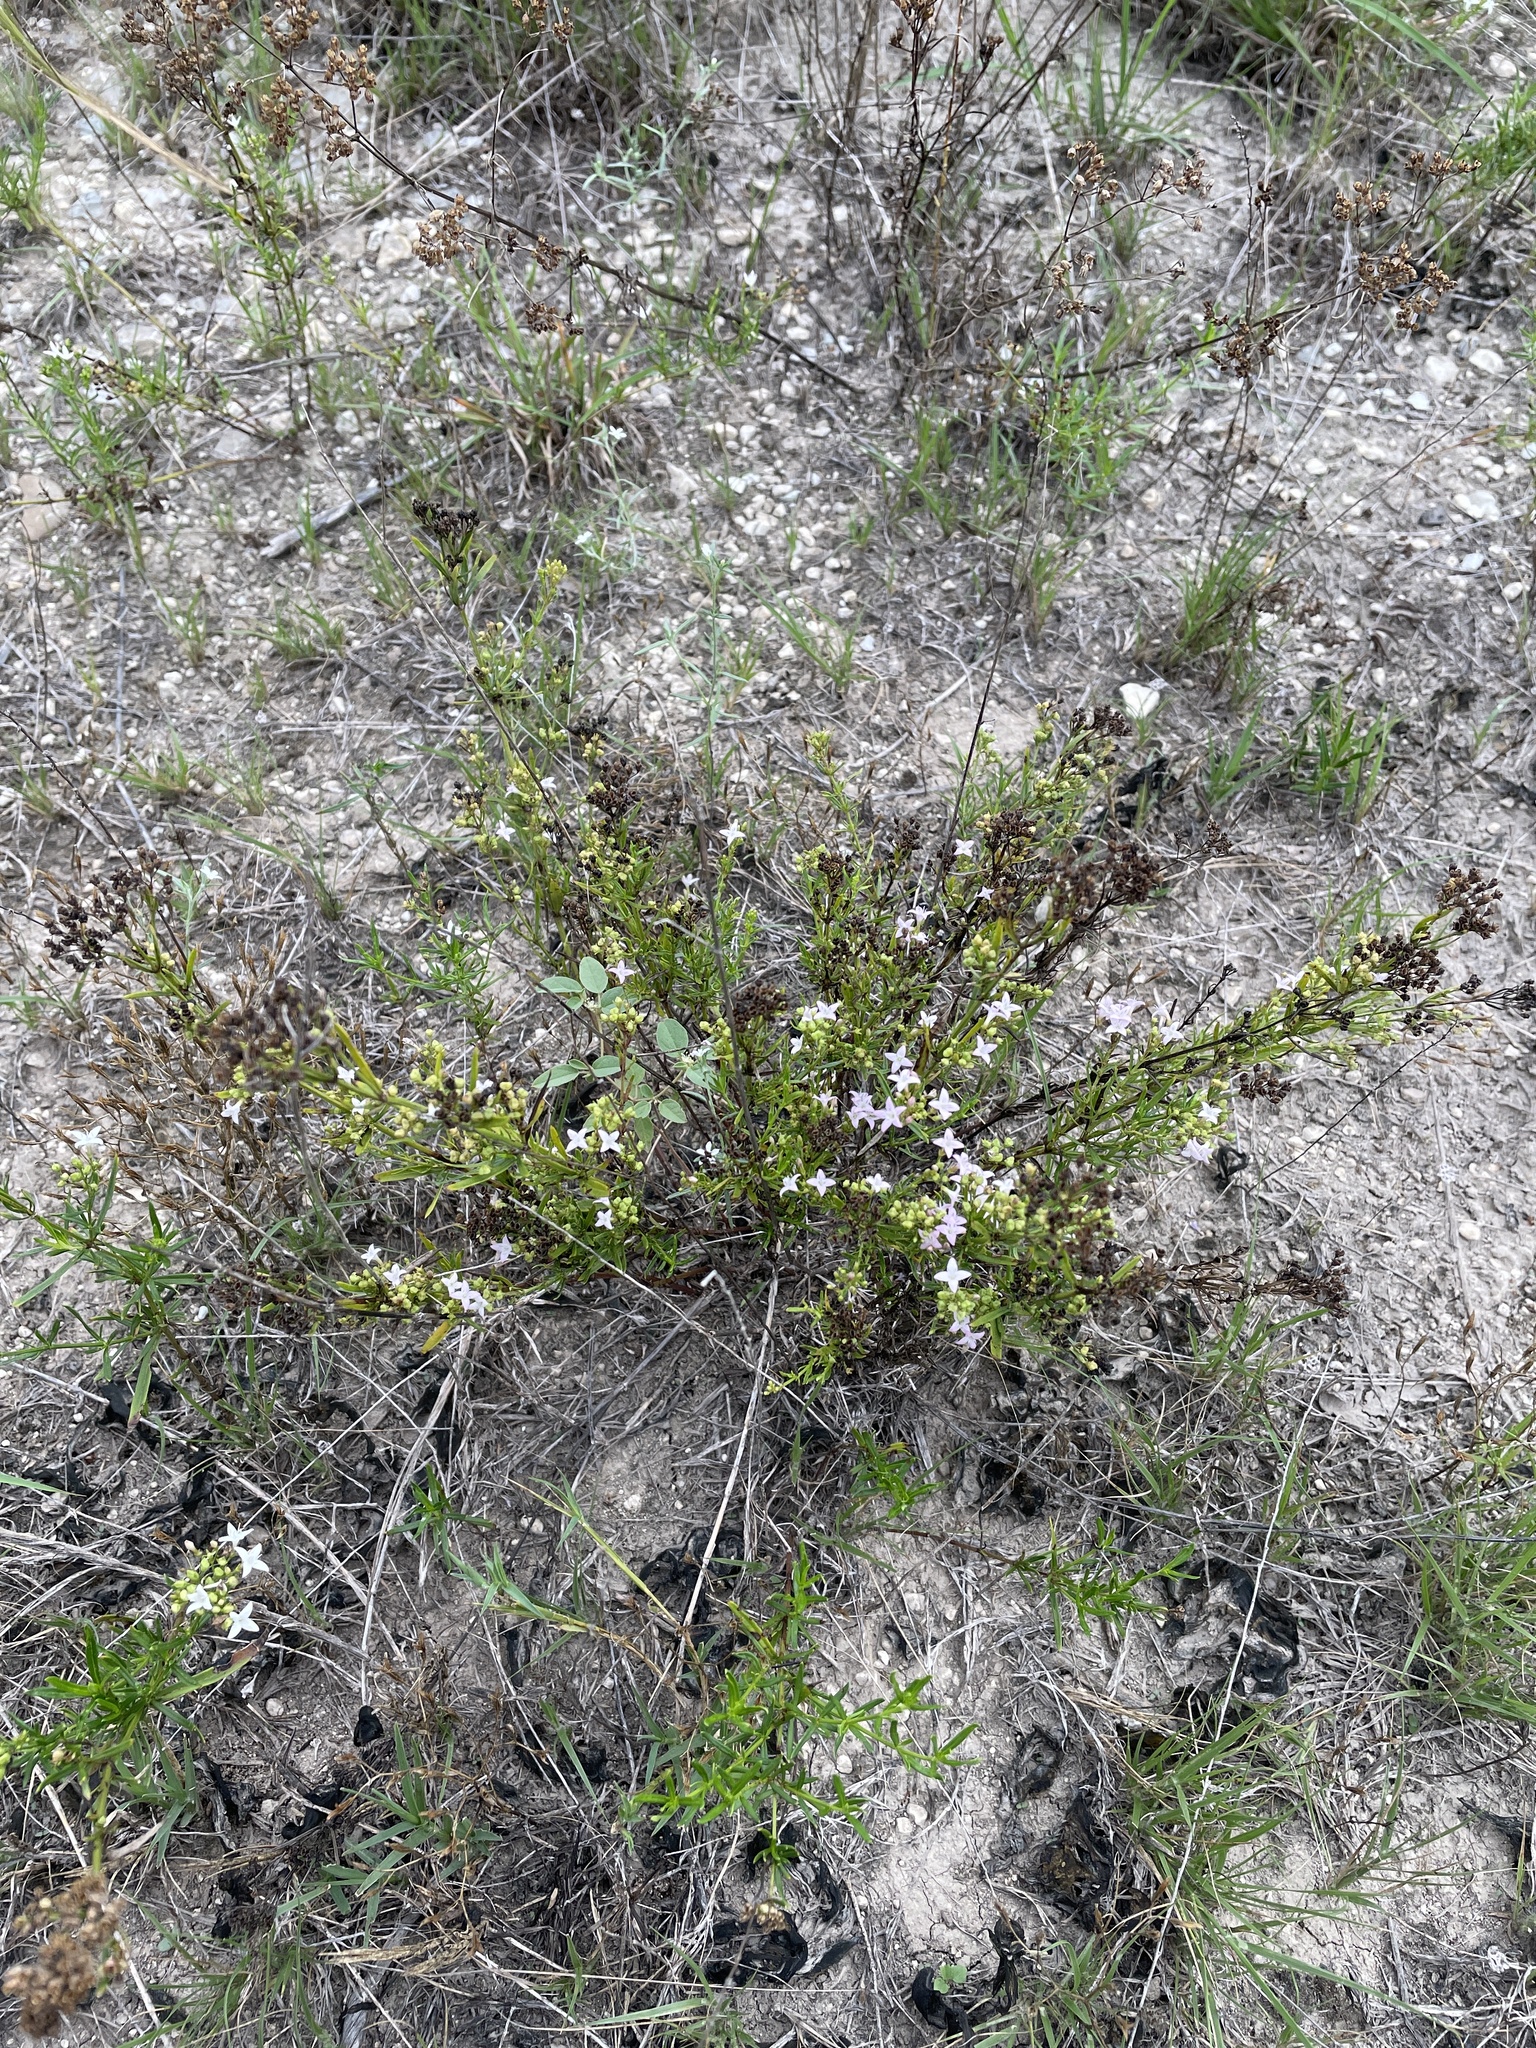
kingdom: Plantae
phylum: Tracheophyta
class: Magnoliopsida
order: Gentianales
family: Rubiaceae
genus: Stenaria
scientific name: Stenaria nigricans
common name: Diamondflowers
